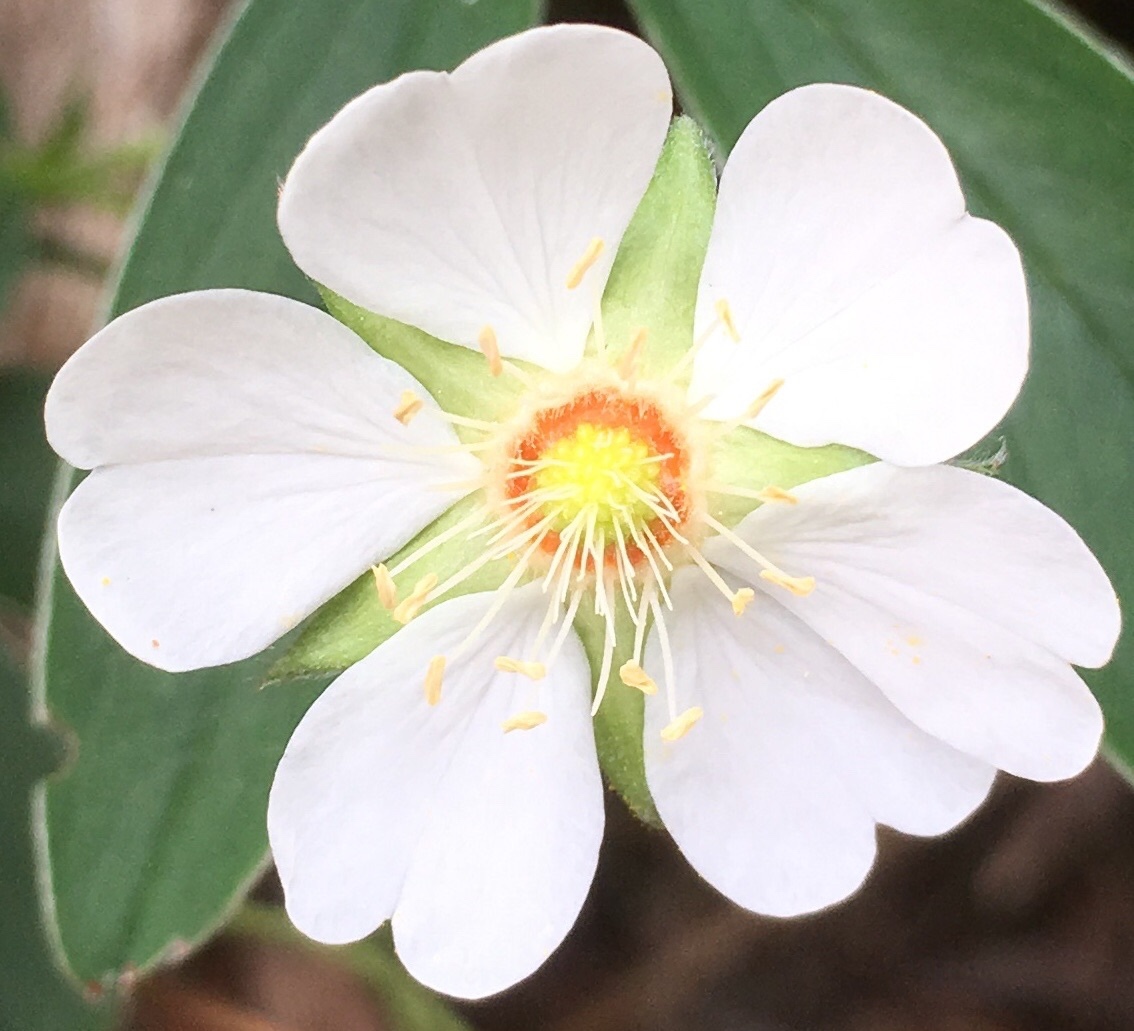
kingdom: Plantae
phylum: Tracheophyta
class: Magnoliopsida
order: Rosales
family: Rosaceae
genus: Potentilla
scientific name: Potentilla alba
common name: White cinquefoil
